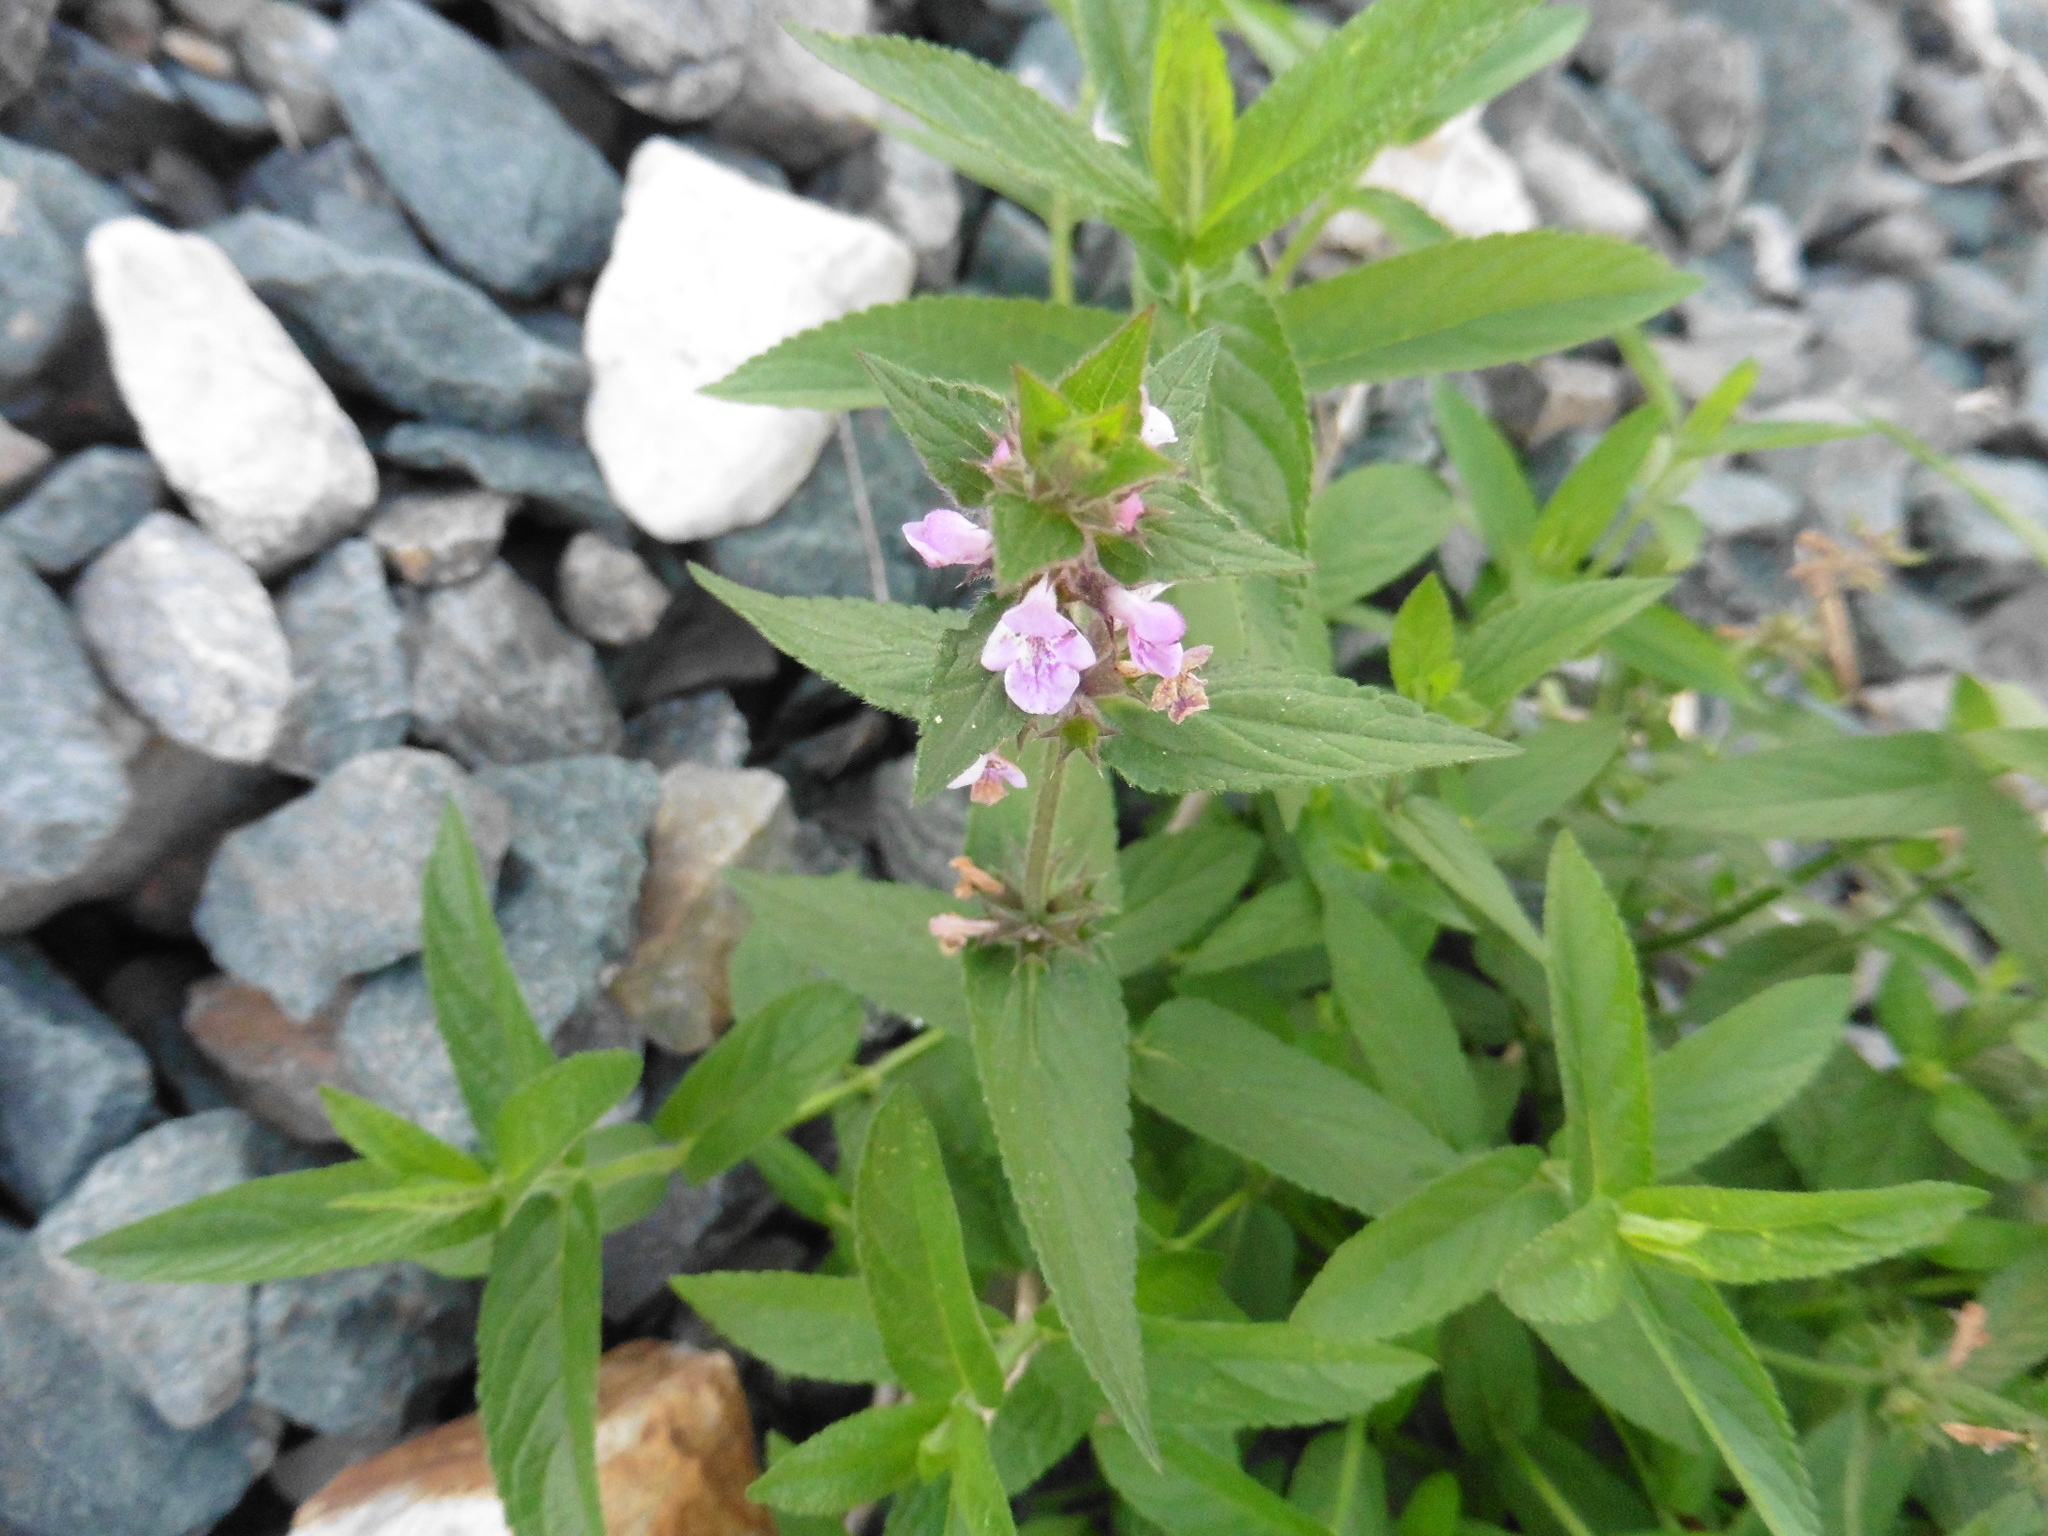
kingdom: Plantae
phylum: Tracheophyta
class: Magnoliopsida
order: Lamiales
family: Lamiaceae
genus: Stachys
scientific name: Stachys palustris
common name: Marsh woundwort
